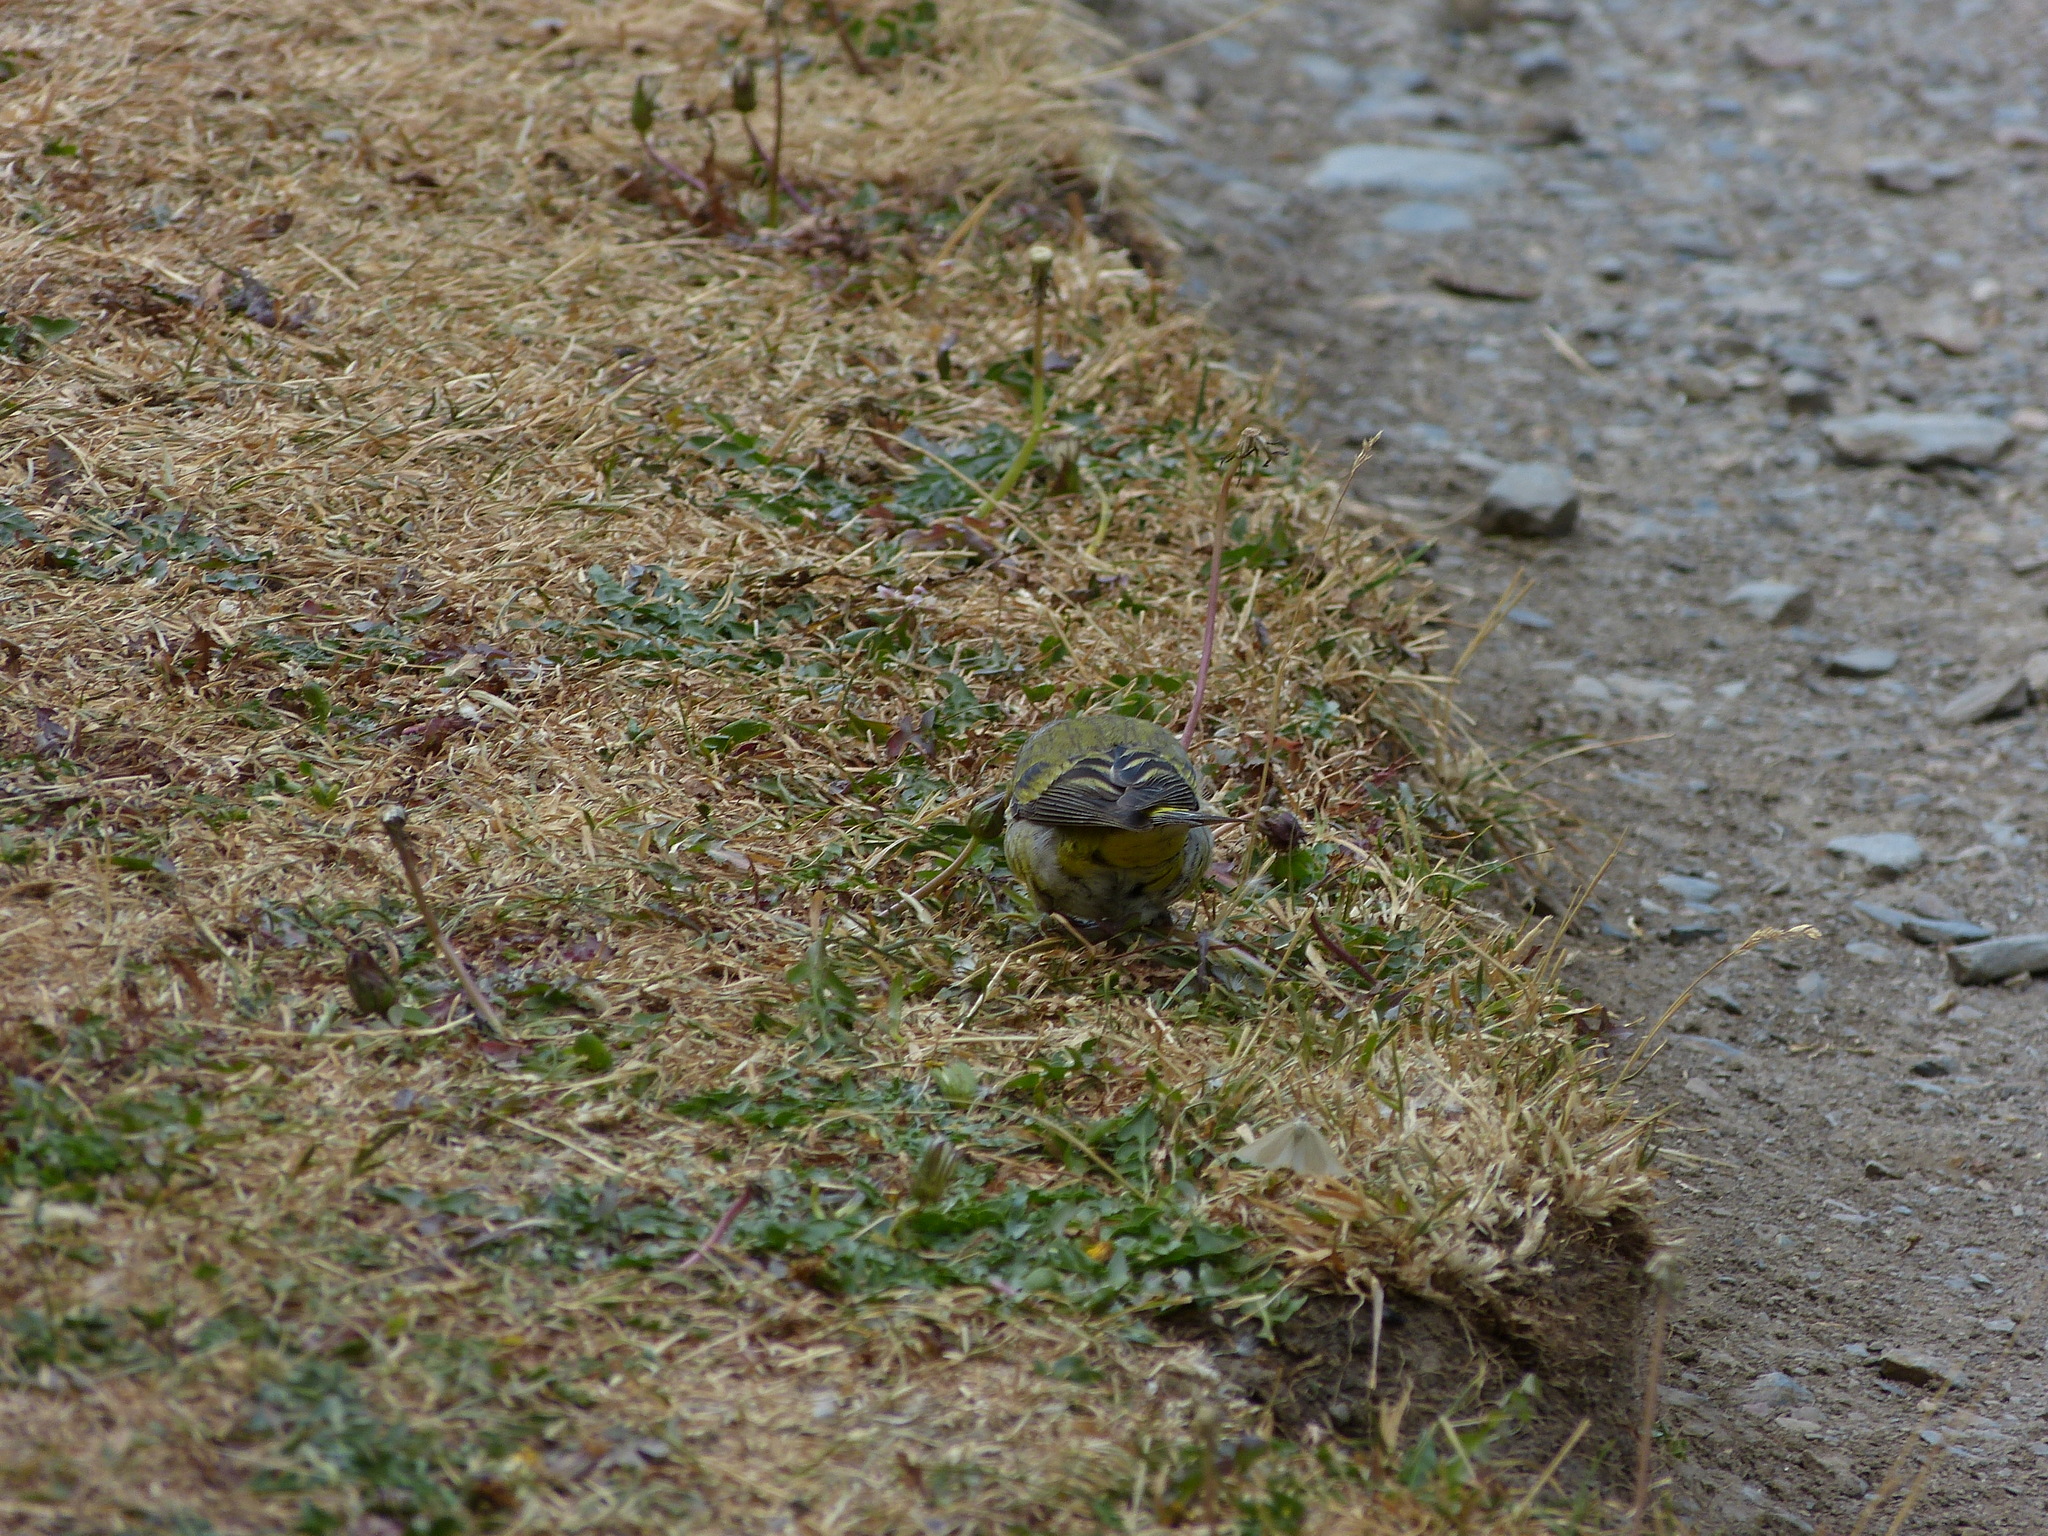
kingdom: Animalia
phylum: Chordata
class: Aves
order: Passeriformes
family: Fringillidae
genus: Carduelis
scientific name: Carduelis citrinella
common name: Citril finch
